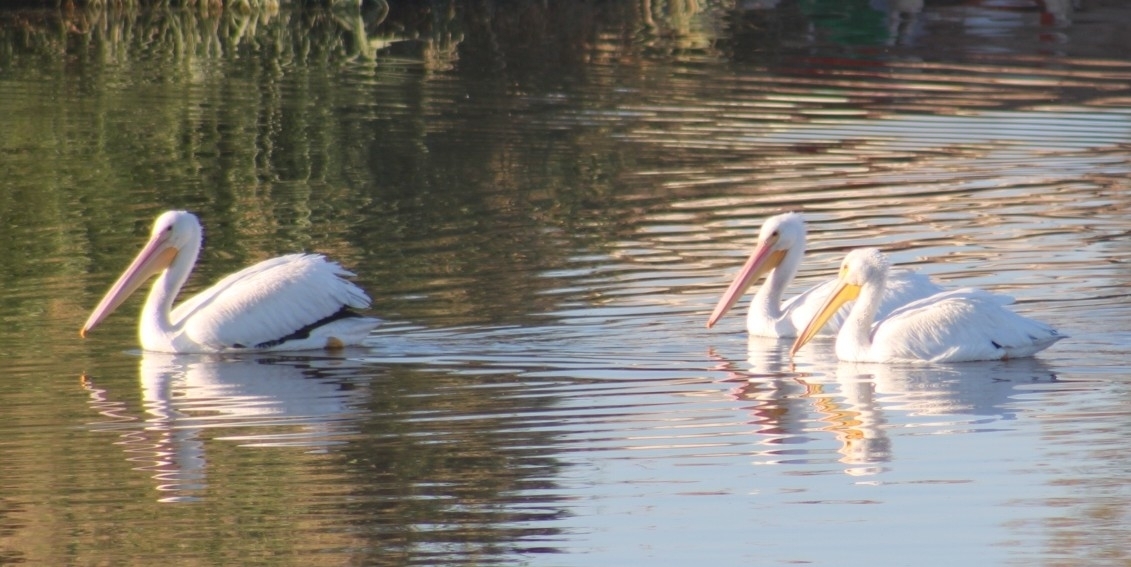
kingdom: Animalia
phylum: Chordata
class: Aves
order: Pelecaniformes
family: Pelecanidae
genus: Pelecanus
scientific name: Pelecanus erythrorhynchos
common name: American white pelican
